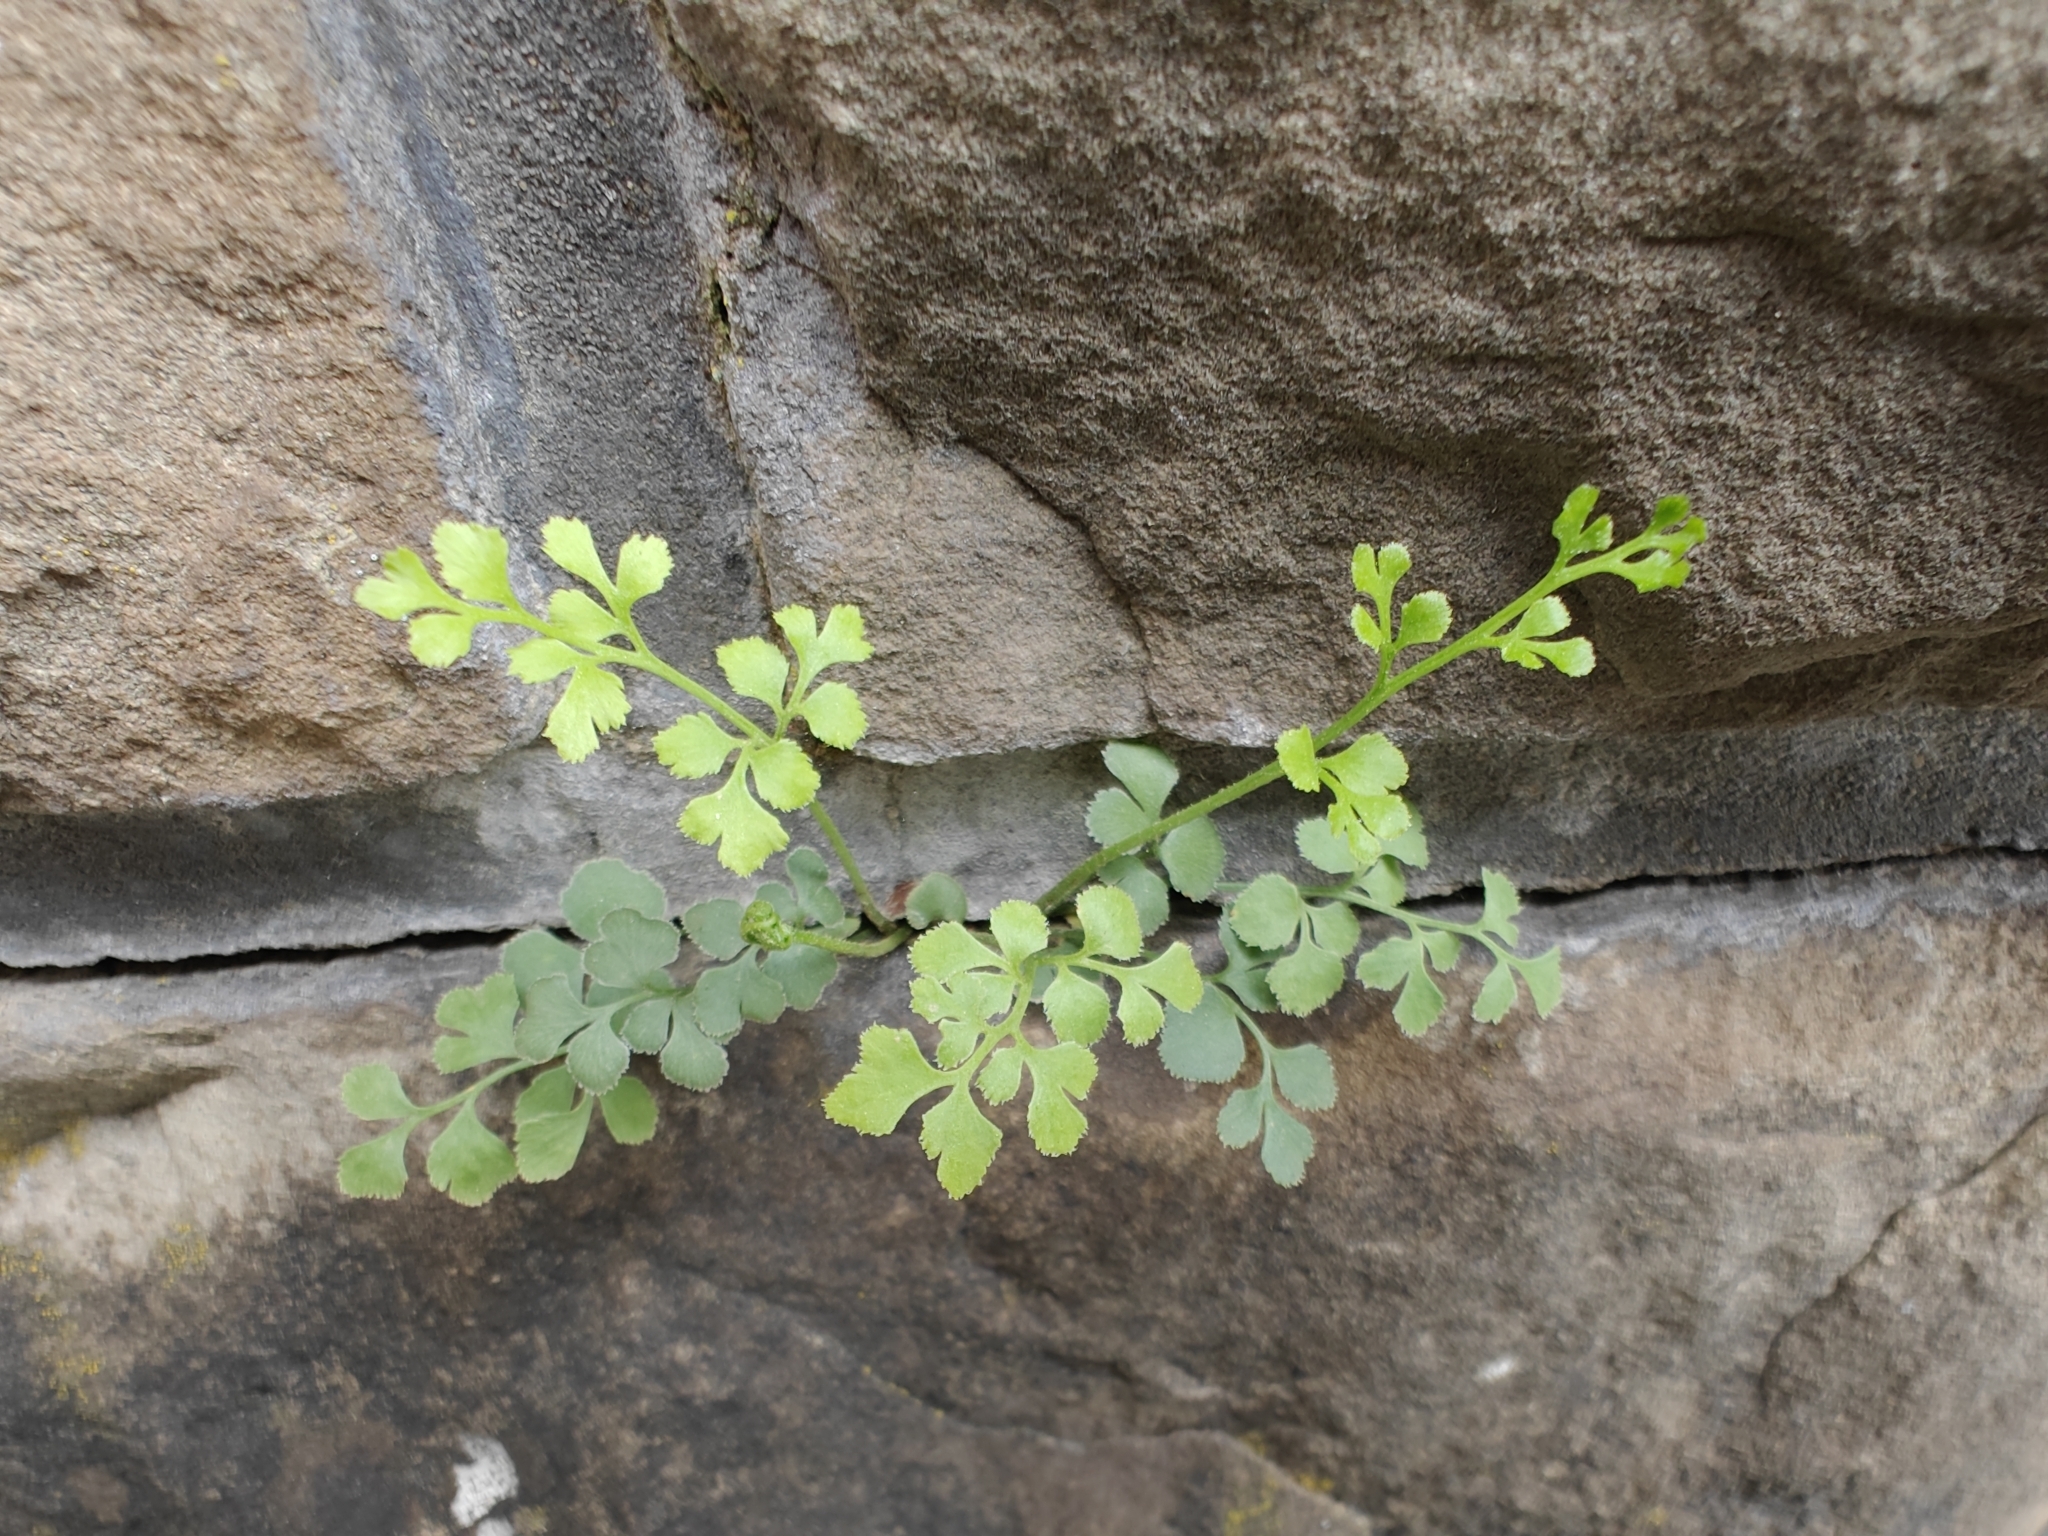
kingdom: Plantae
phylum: Tracheophyta
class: Polypodiopsida
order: Polypodiales
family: Aspleniaceae
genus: Asplenium
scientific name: Asplenium ruta-muraria
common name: Wall-rue
